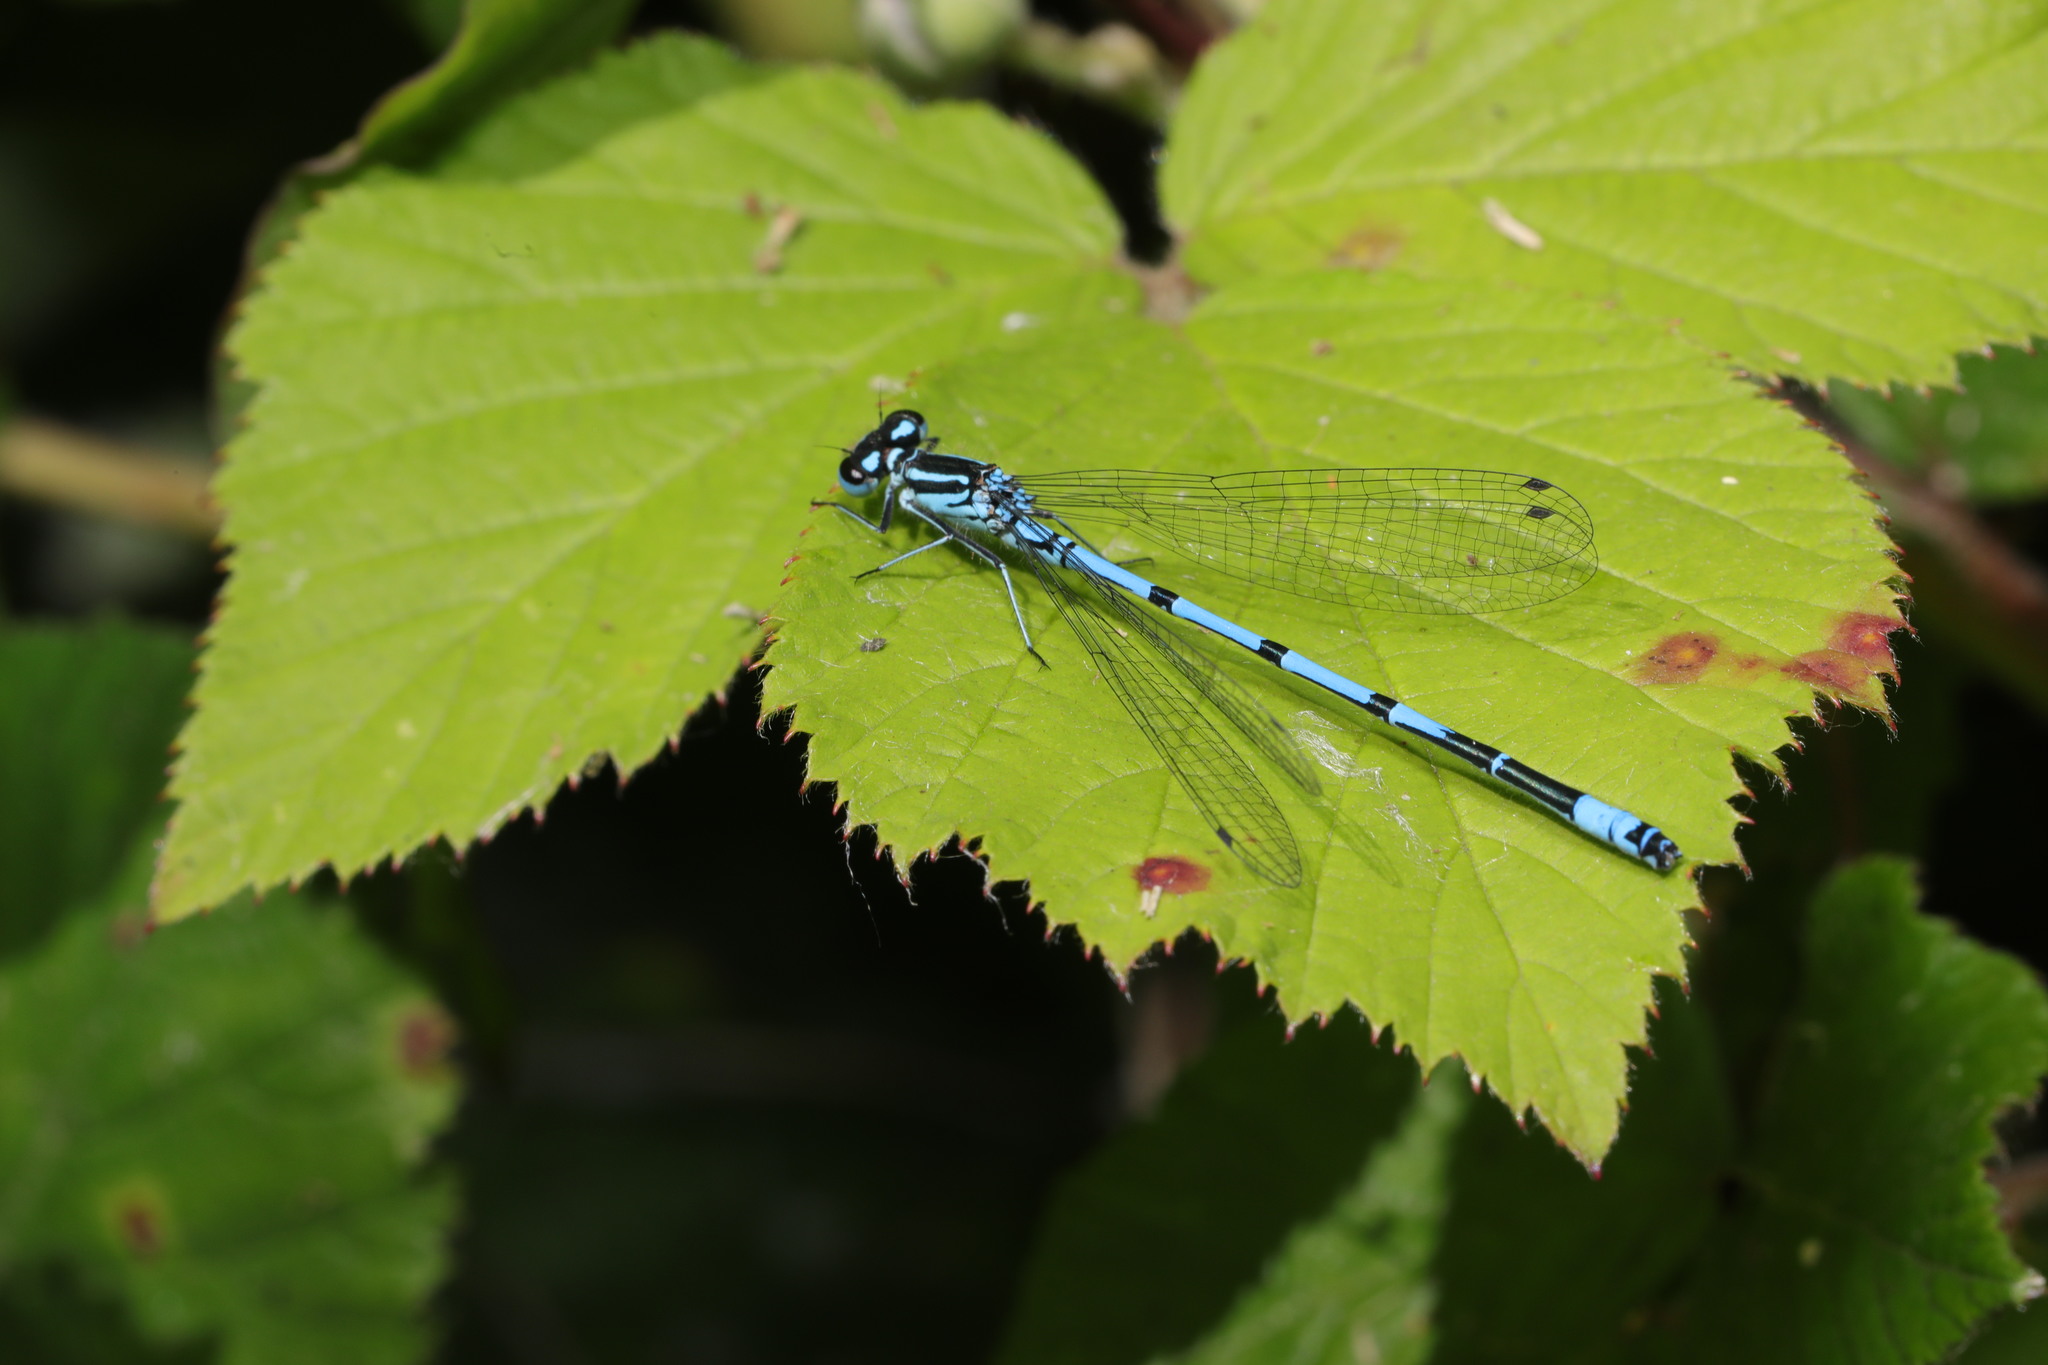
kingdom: Animalia
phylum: Arthropoda
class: Insecta
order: Odonata
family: Coenagrionidae
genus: Coenagrion
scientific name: Coenagrion puella
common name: Azure damselfly
